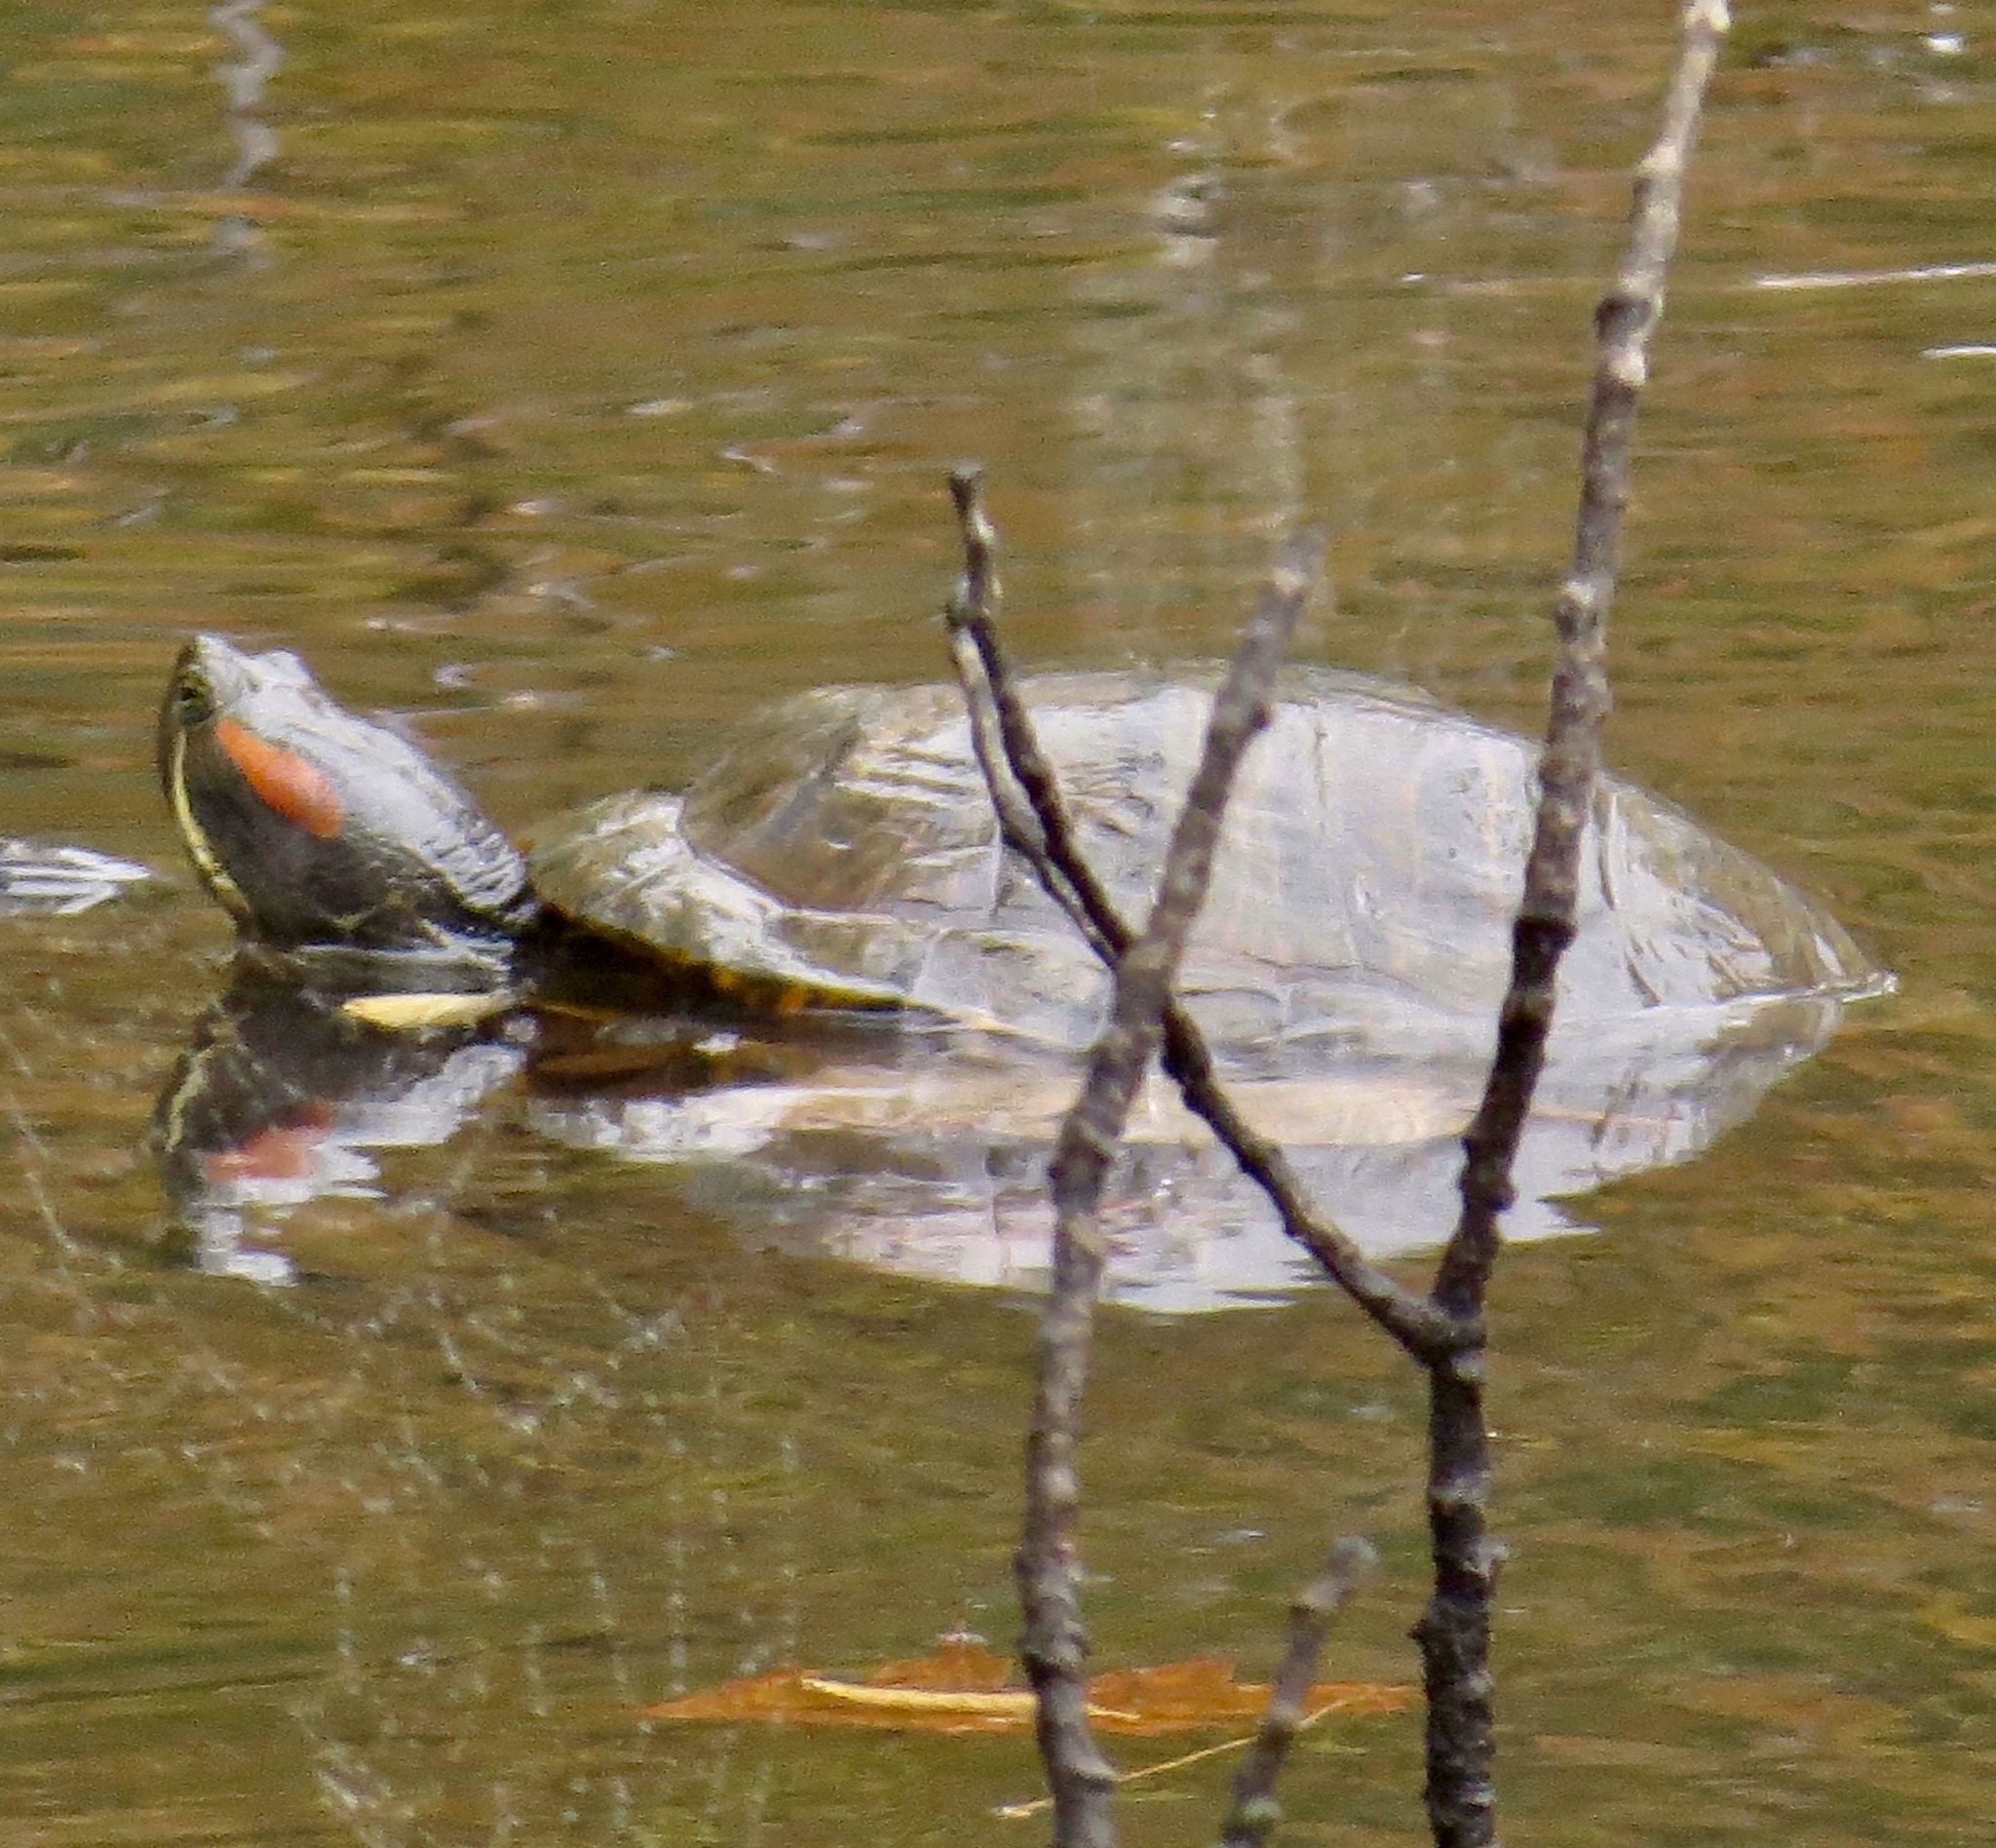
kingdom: Animalia
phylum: Chordata
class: Testudines
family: Emydidae
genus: Trachemys
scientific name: Trachemys scripta
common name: Slider
